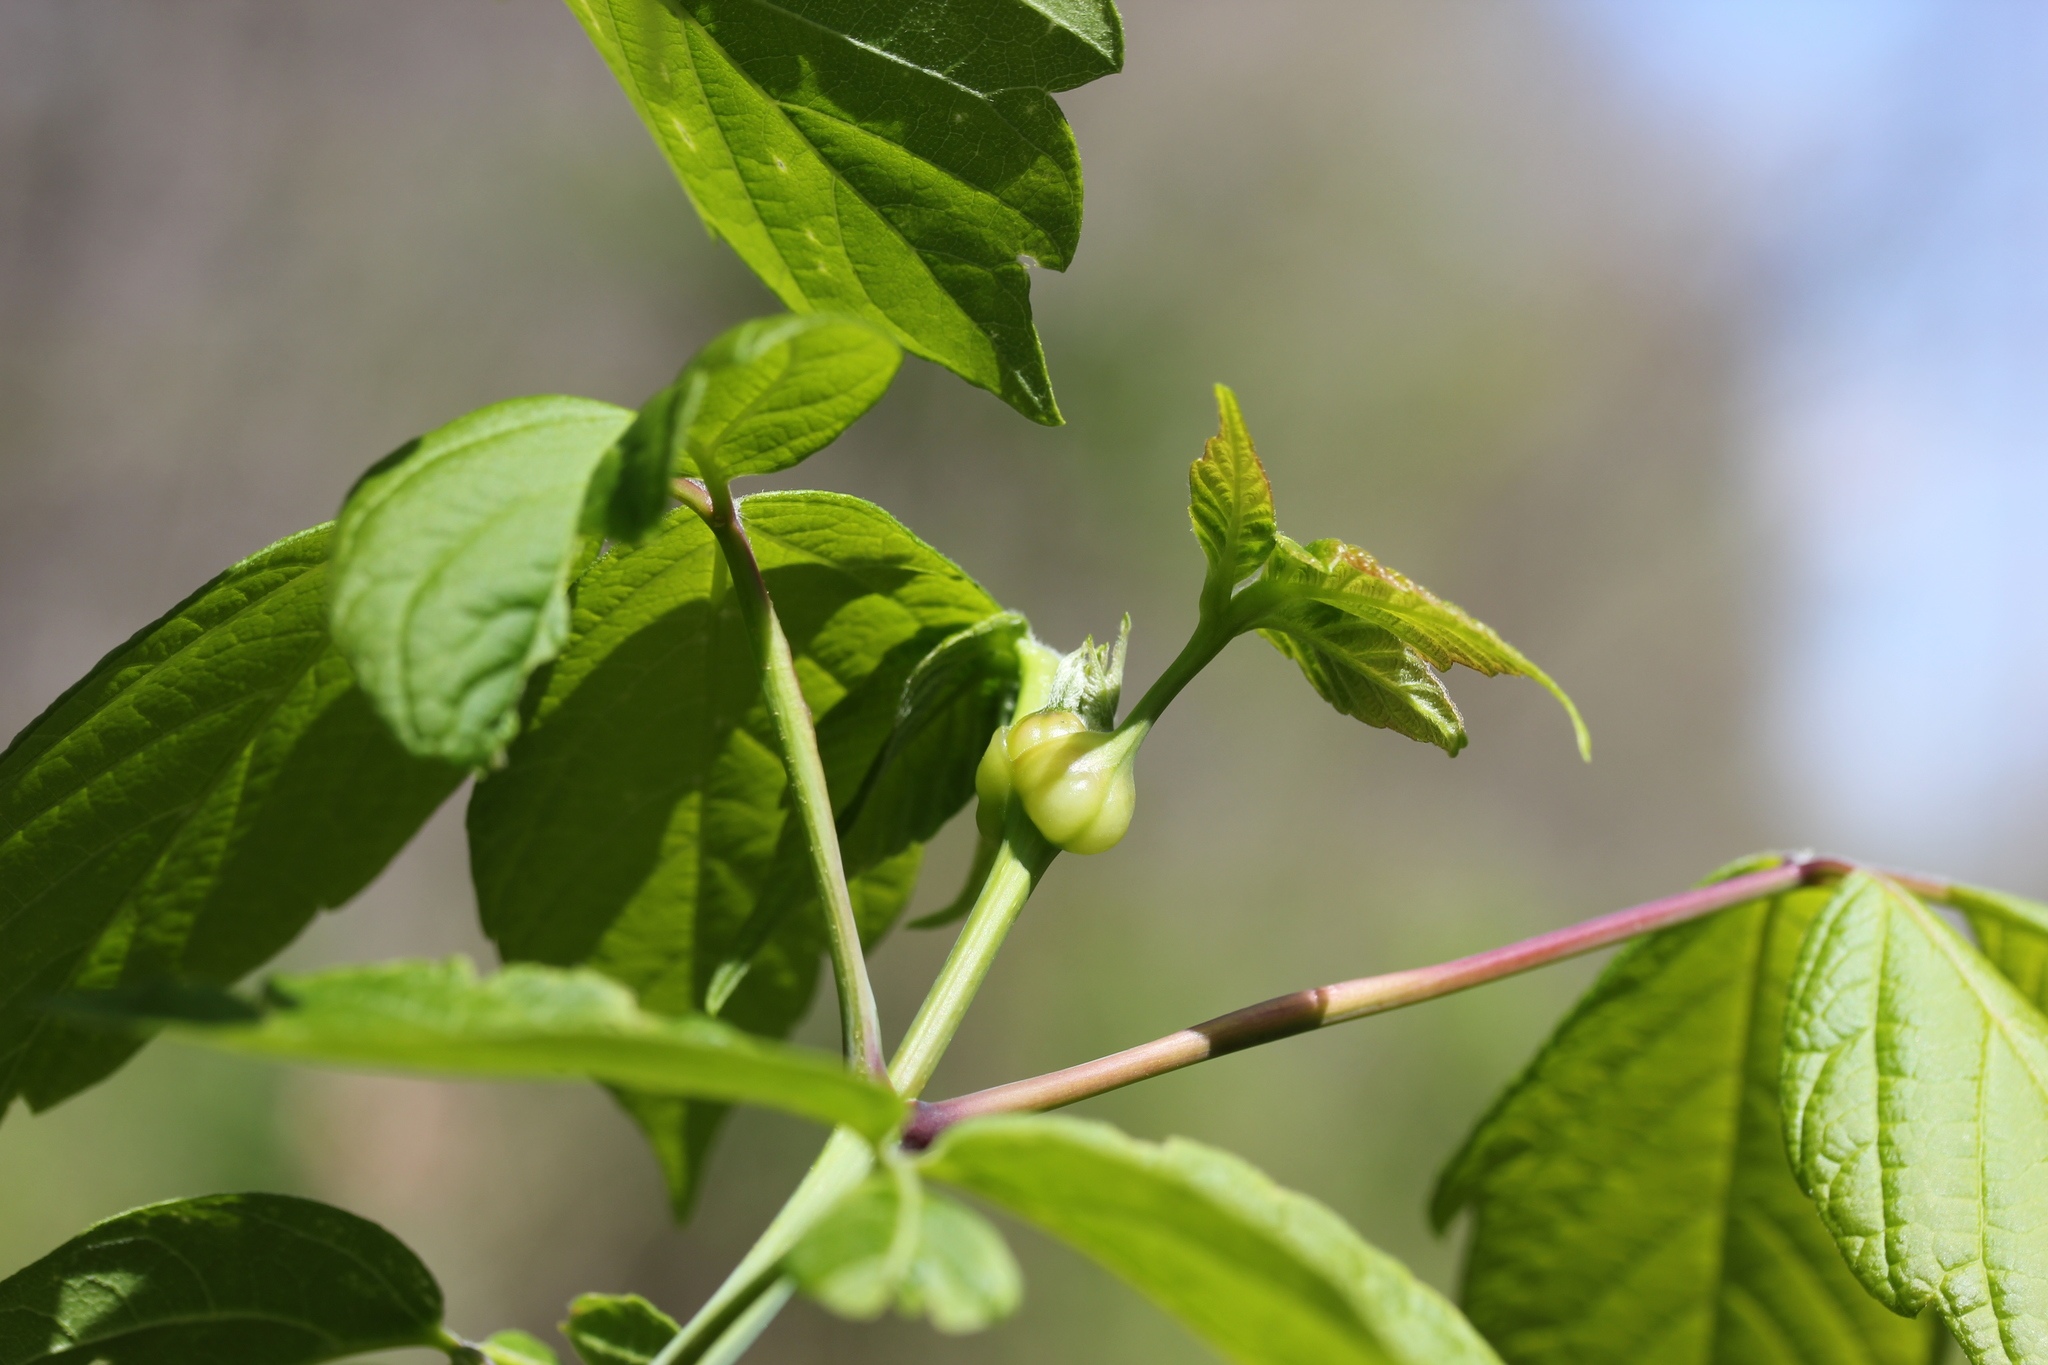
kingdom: Plantae
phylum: Tracheophyta
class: Magnoliopsida
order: Sapindales
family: Sapindaceae
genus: Acer
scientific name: Acer negundo
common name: Ashleaf maple
